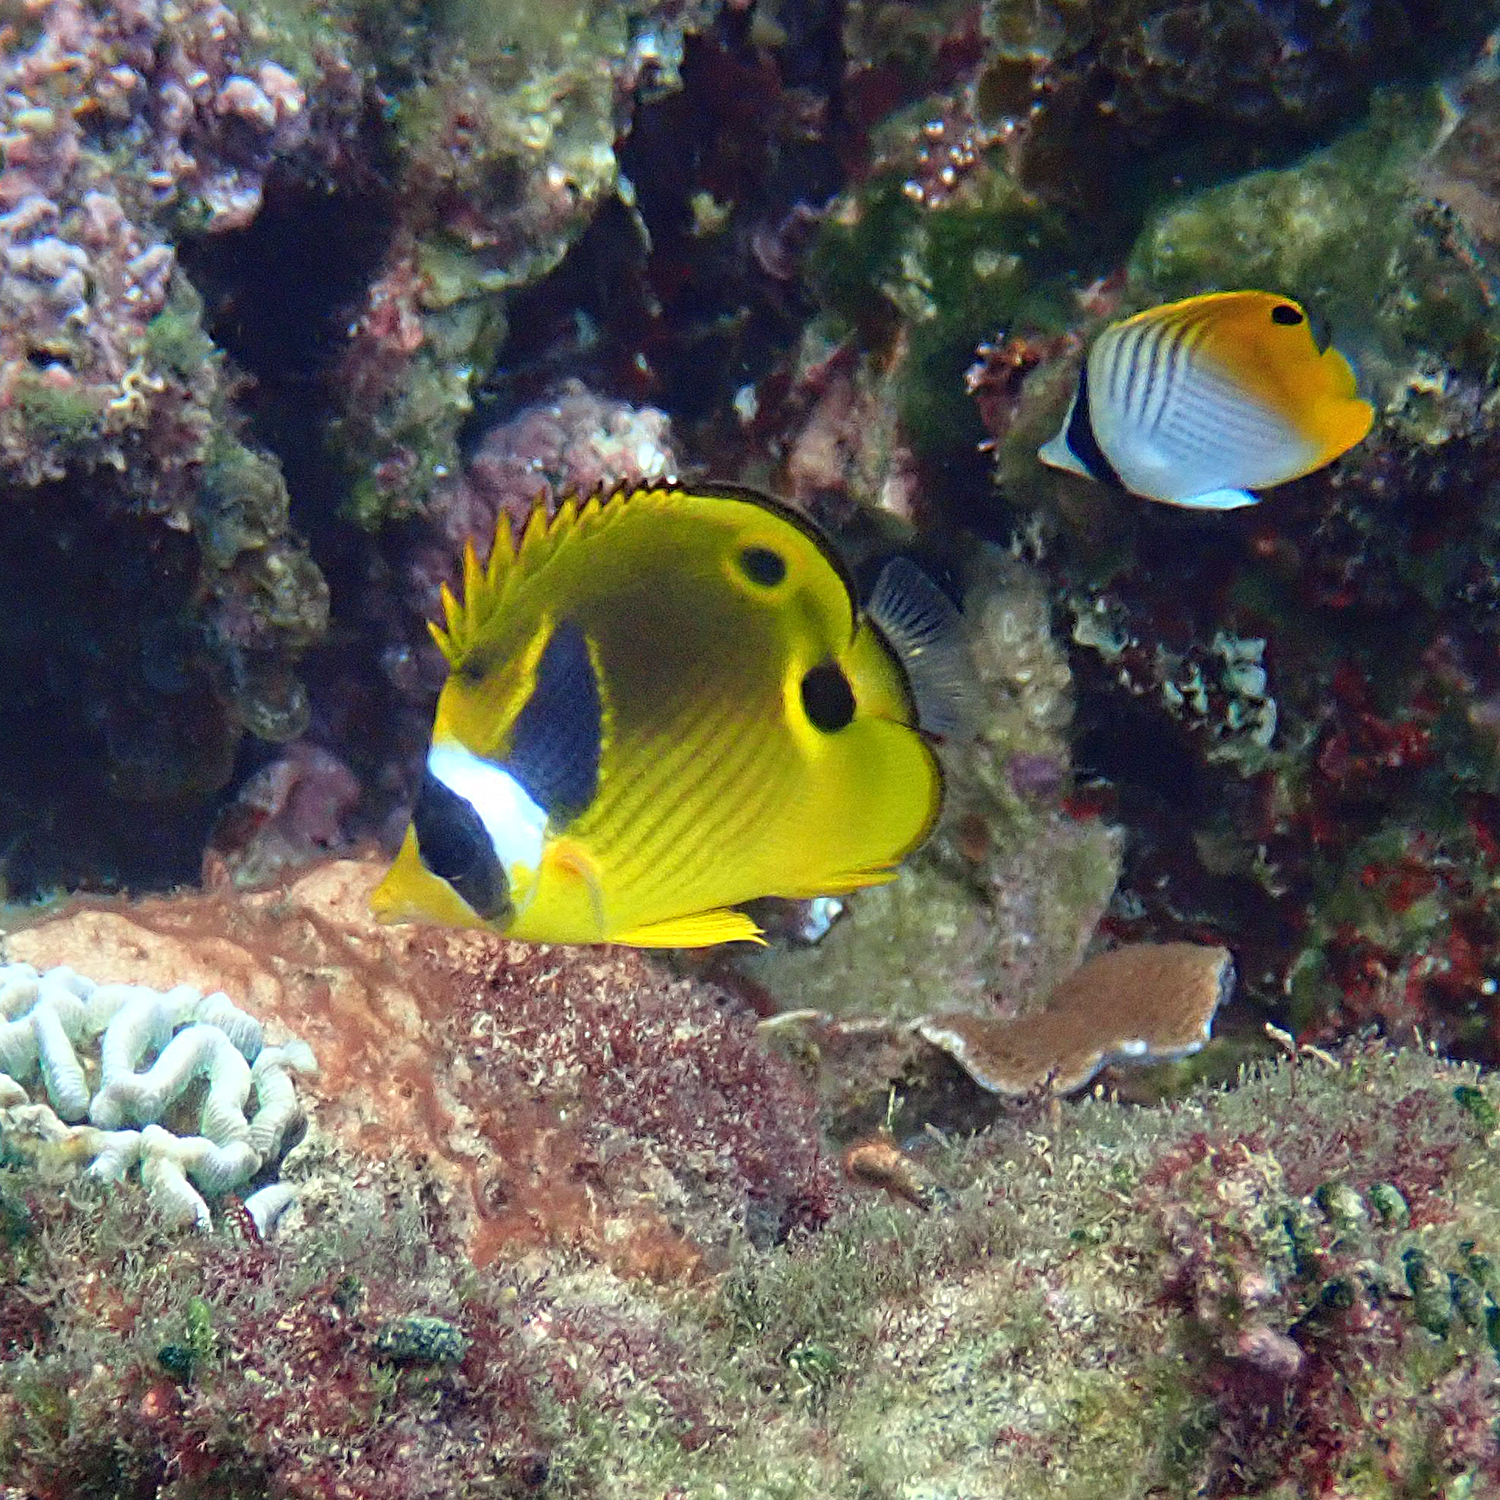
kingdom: Animalia
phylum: Chordata
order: Perciformes
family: Chaetodontidae
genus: Chaetodon
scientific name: Chaetodon lunula
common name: Raccoon butterflyfish
